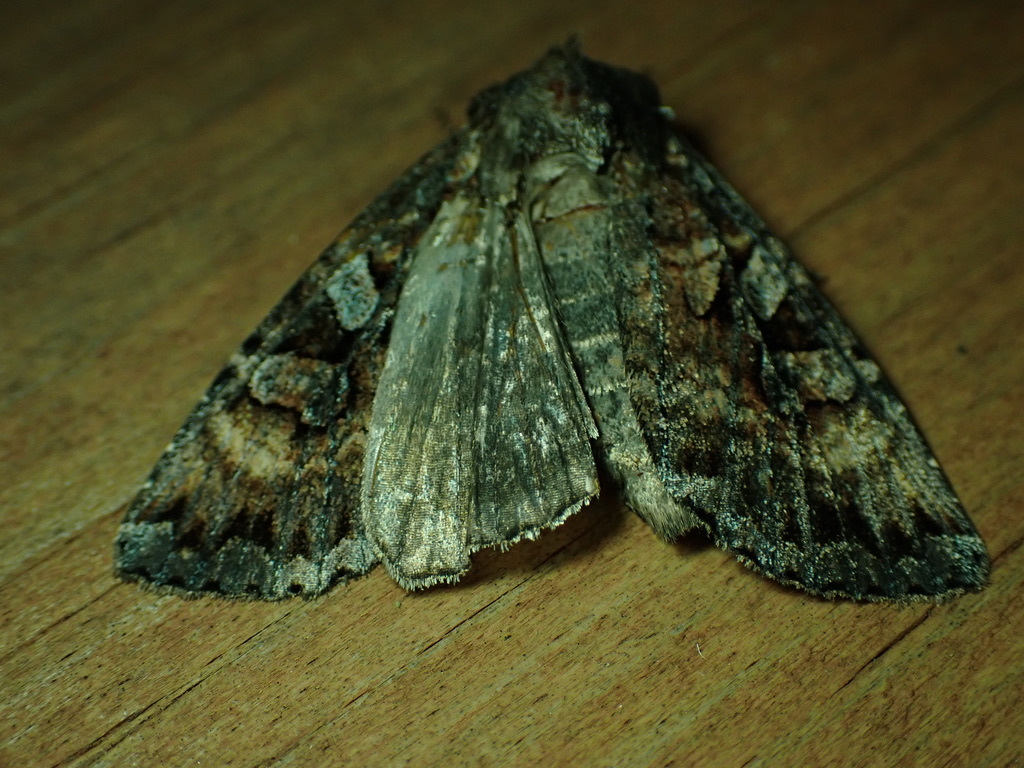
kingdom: Animalia
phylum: Arthropoda
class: Insecta
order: Lepidoptera
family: Noctuidae
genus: Eurois
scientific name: Eurois astricta
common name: Great brown dart
